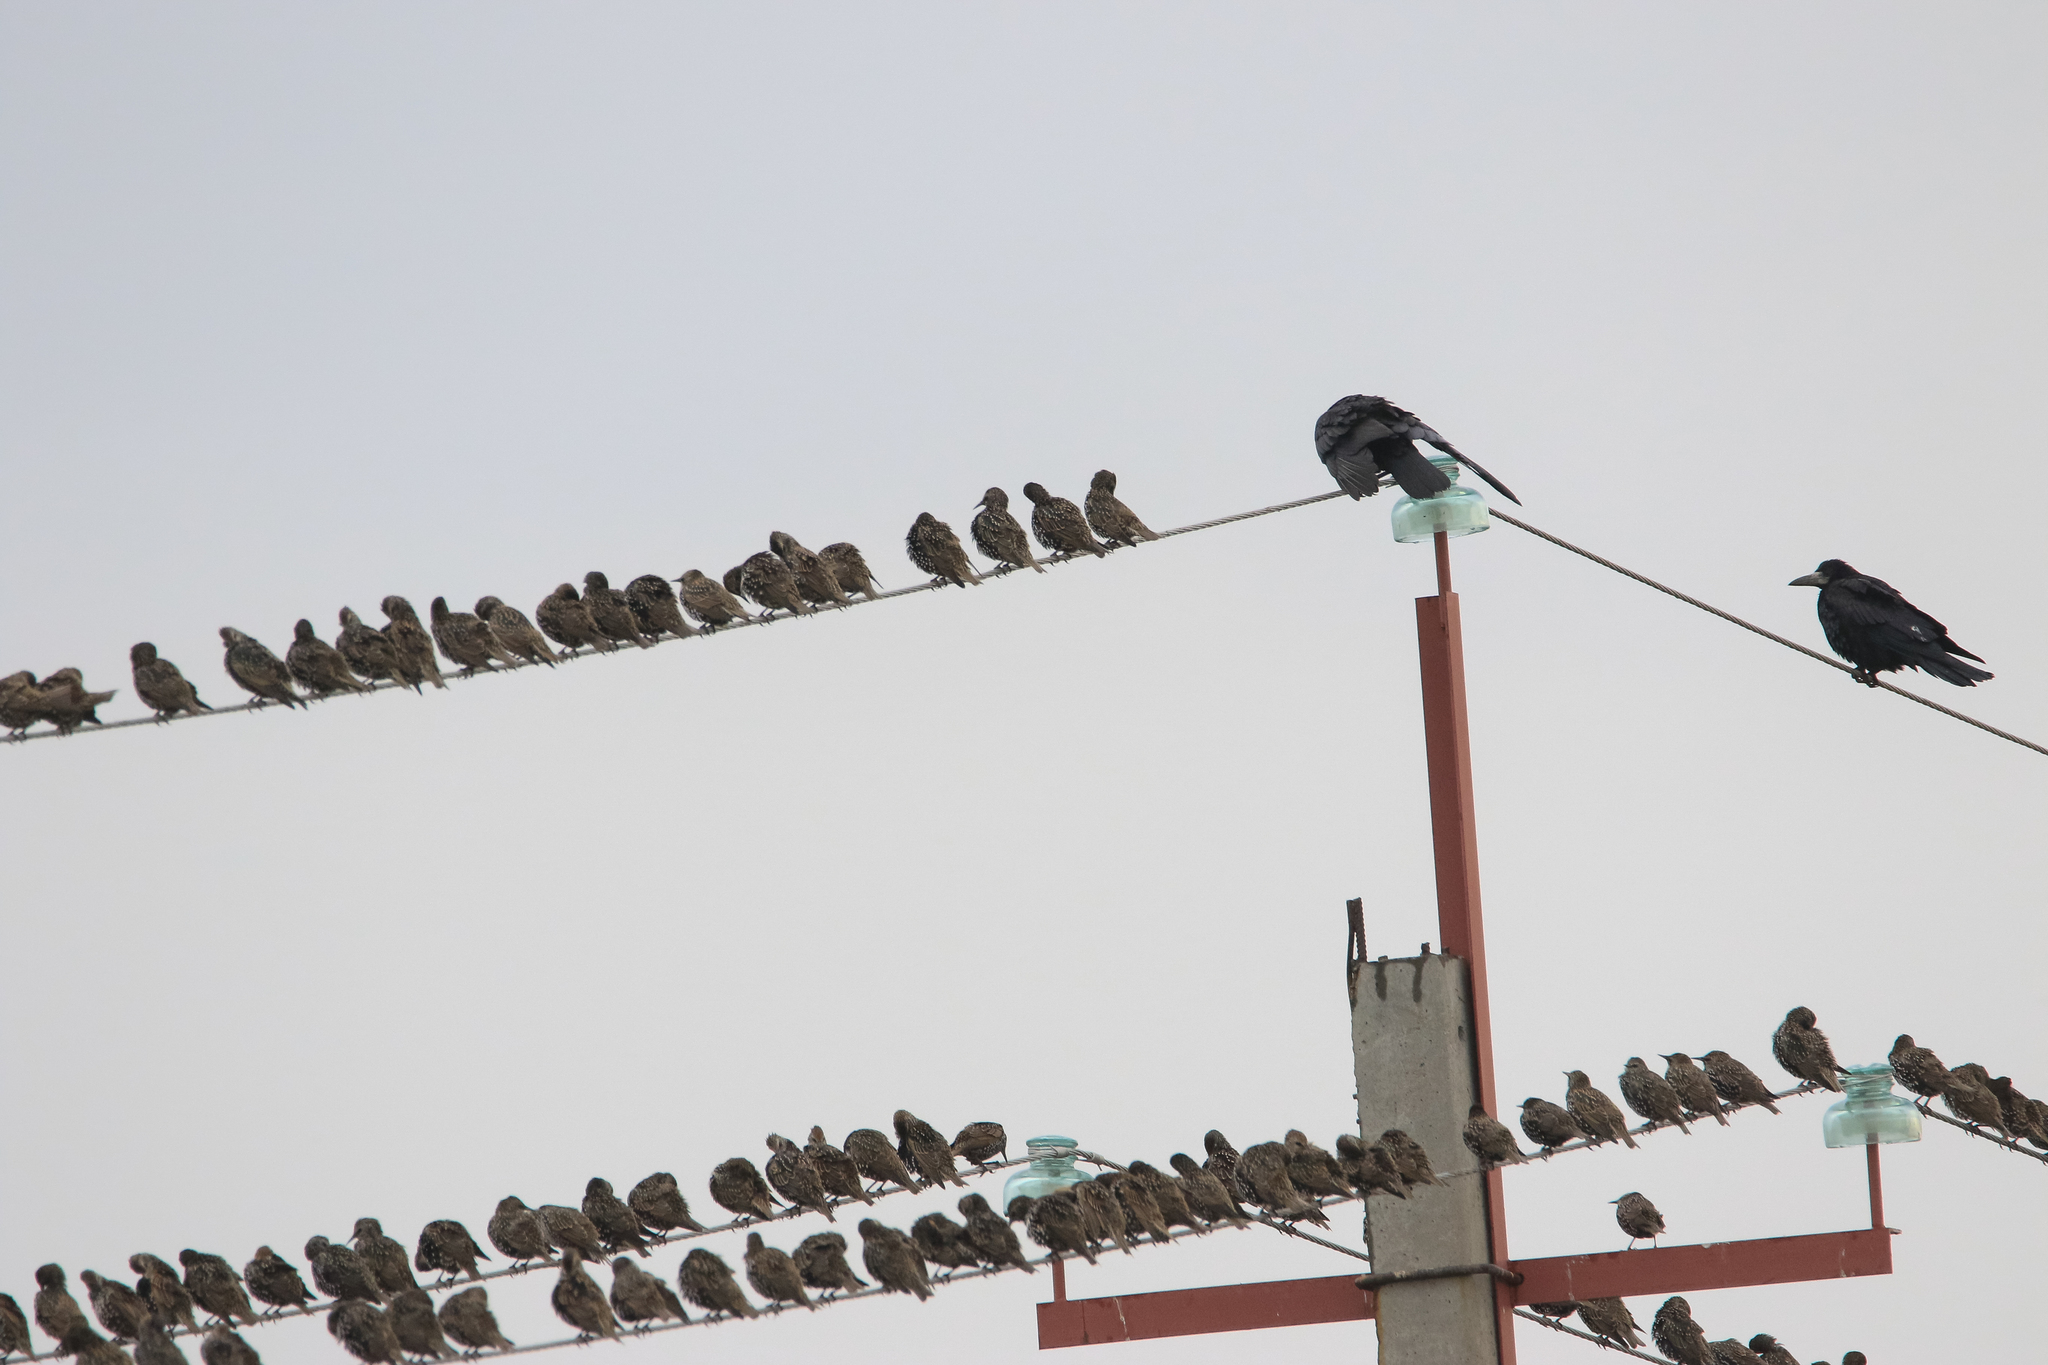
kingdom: Animalia
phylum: Chordata
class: Aves
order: Passeriformes
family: Sturnidae
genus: Sturnus
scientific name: Sturnus vulgaris
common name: Common starling
